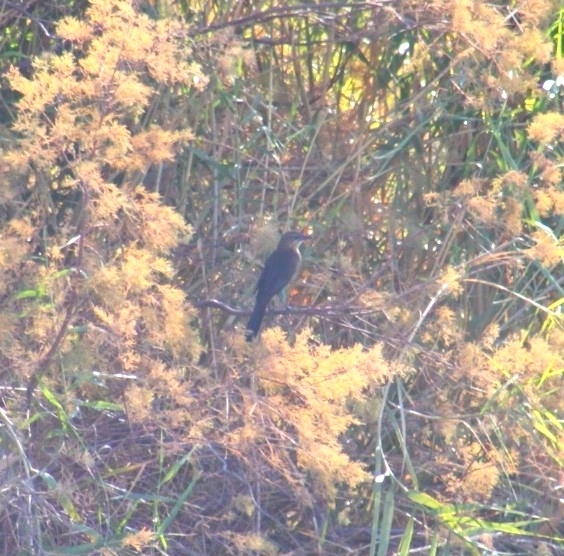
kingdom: Animalia
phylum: Chordata
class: Aves
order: Passeriformes
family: Icteridae
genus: Quiscalus
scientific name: Quiscalus mexicanus
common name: Great-tailed grackle
